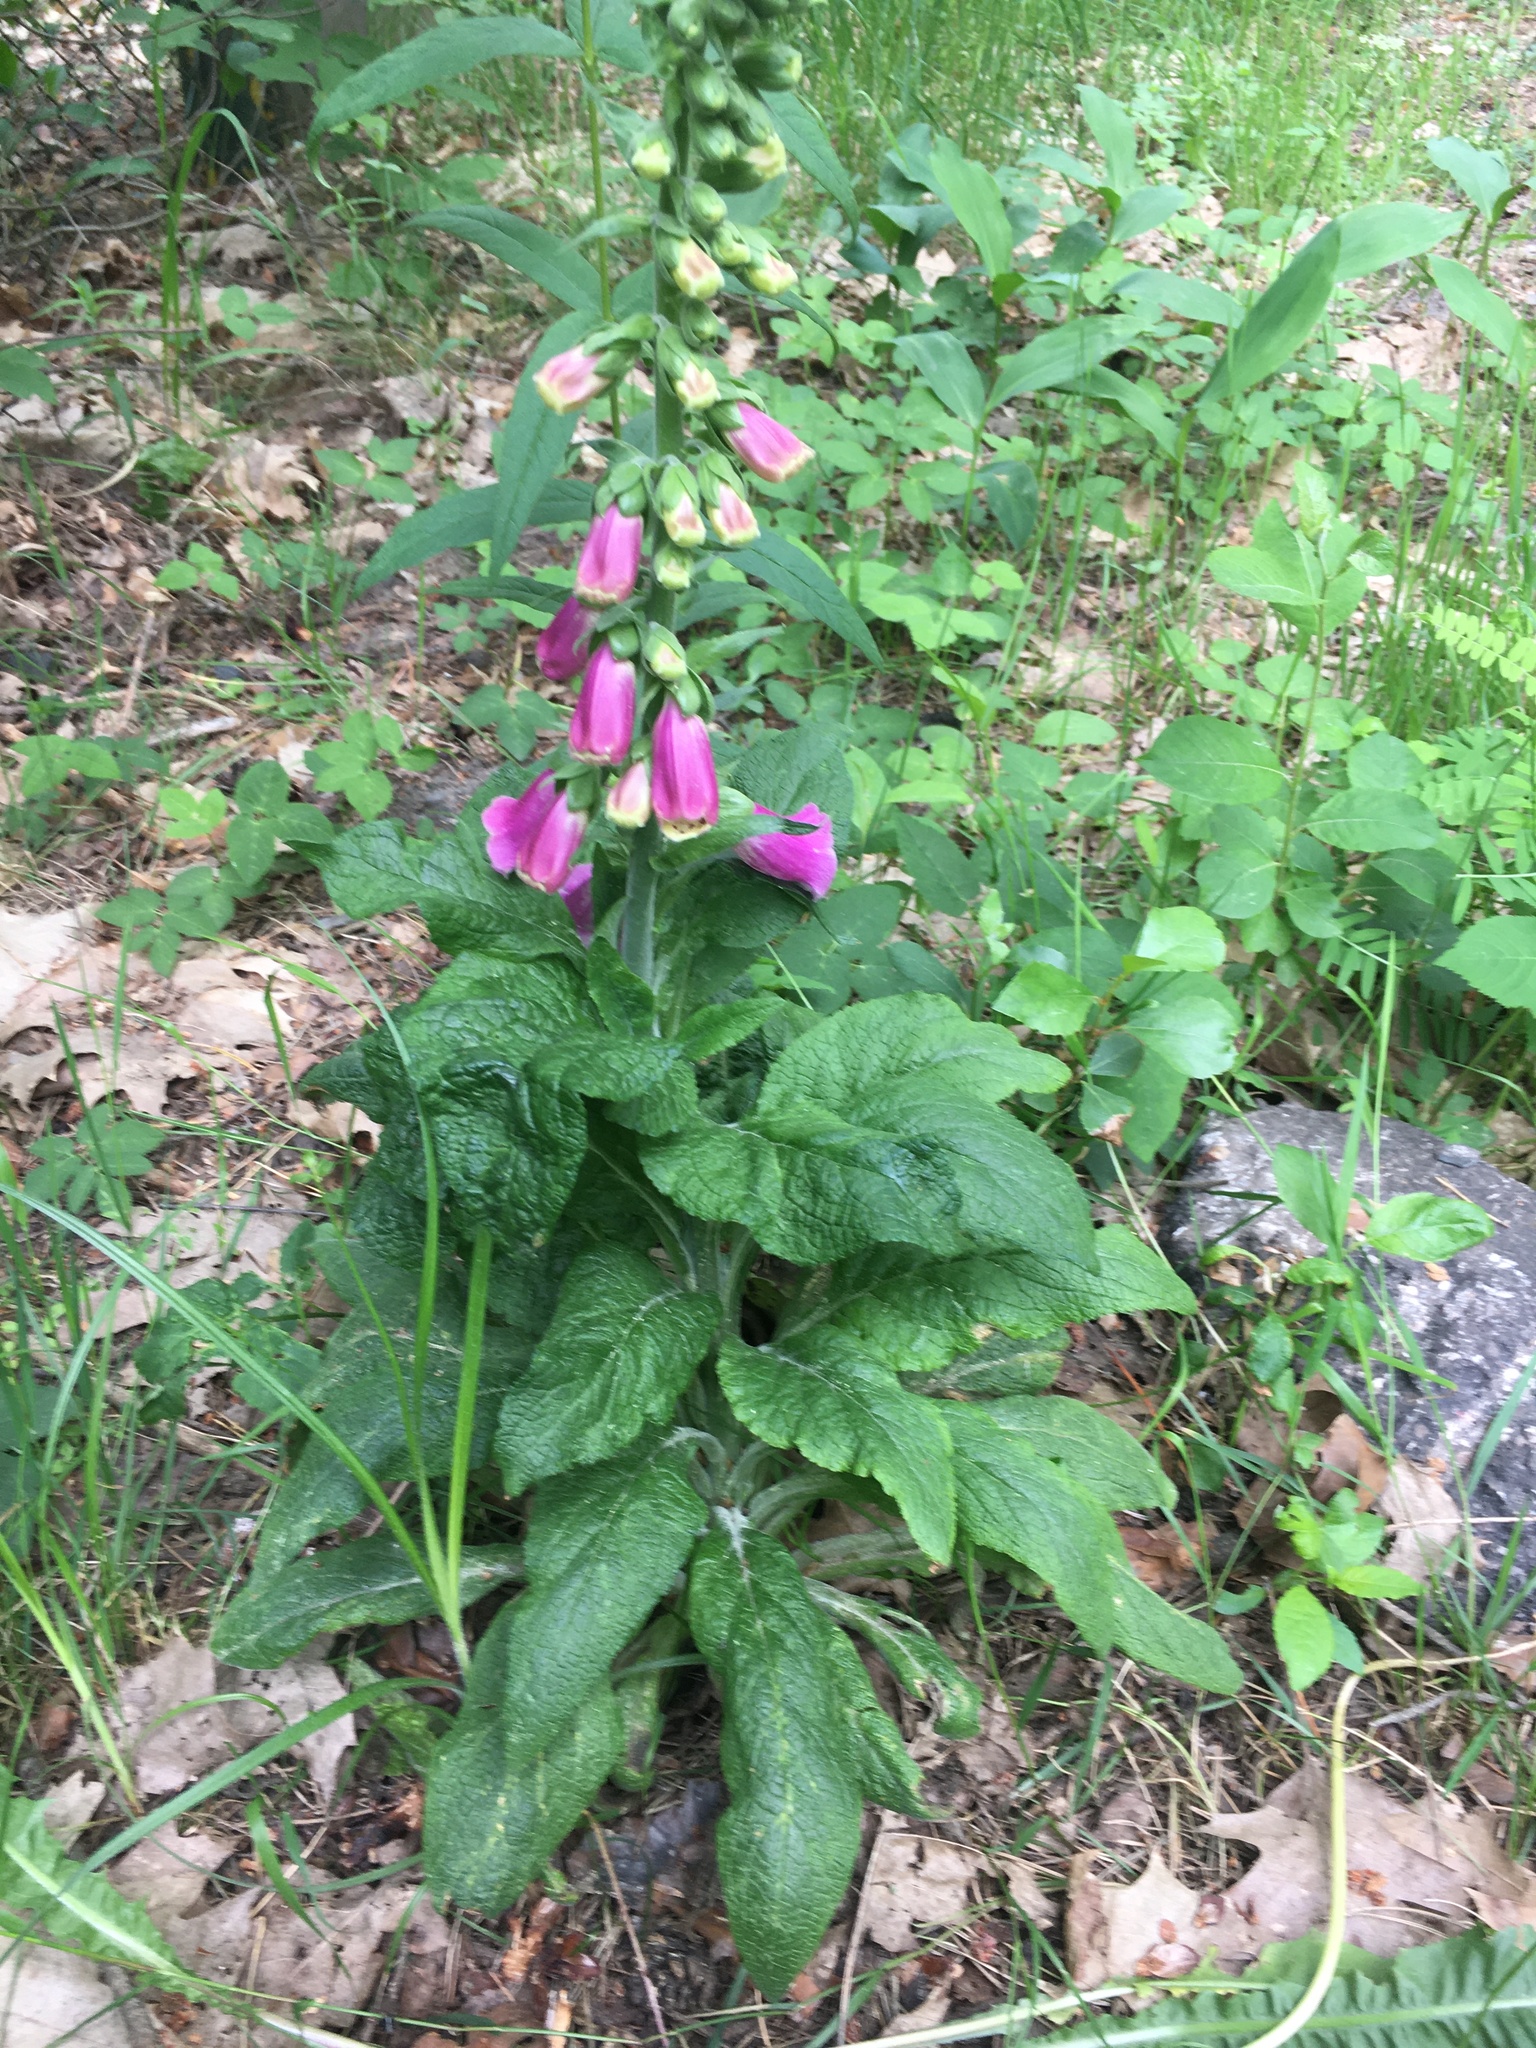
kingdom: Plantae
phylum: Tracheophyta
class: Magnoliopsida
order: Lamiales
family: Plantaginaceae
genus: Digitalis
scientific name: Digitalis purpurea
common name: Foxglove
